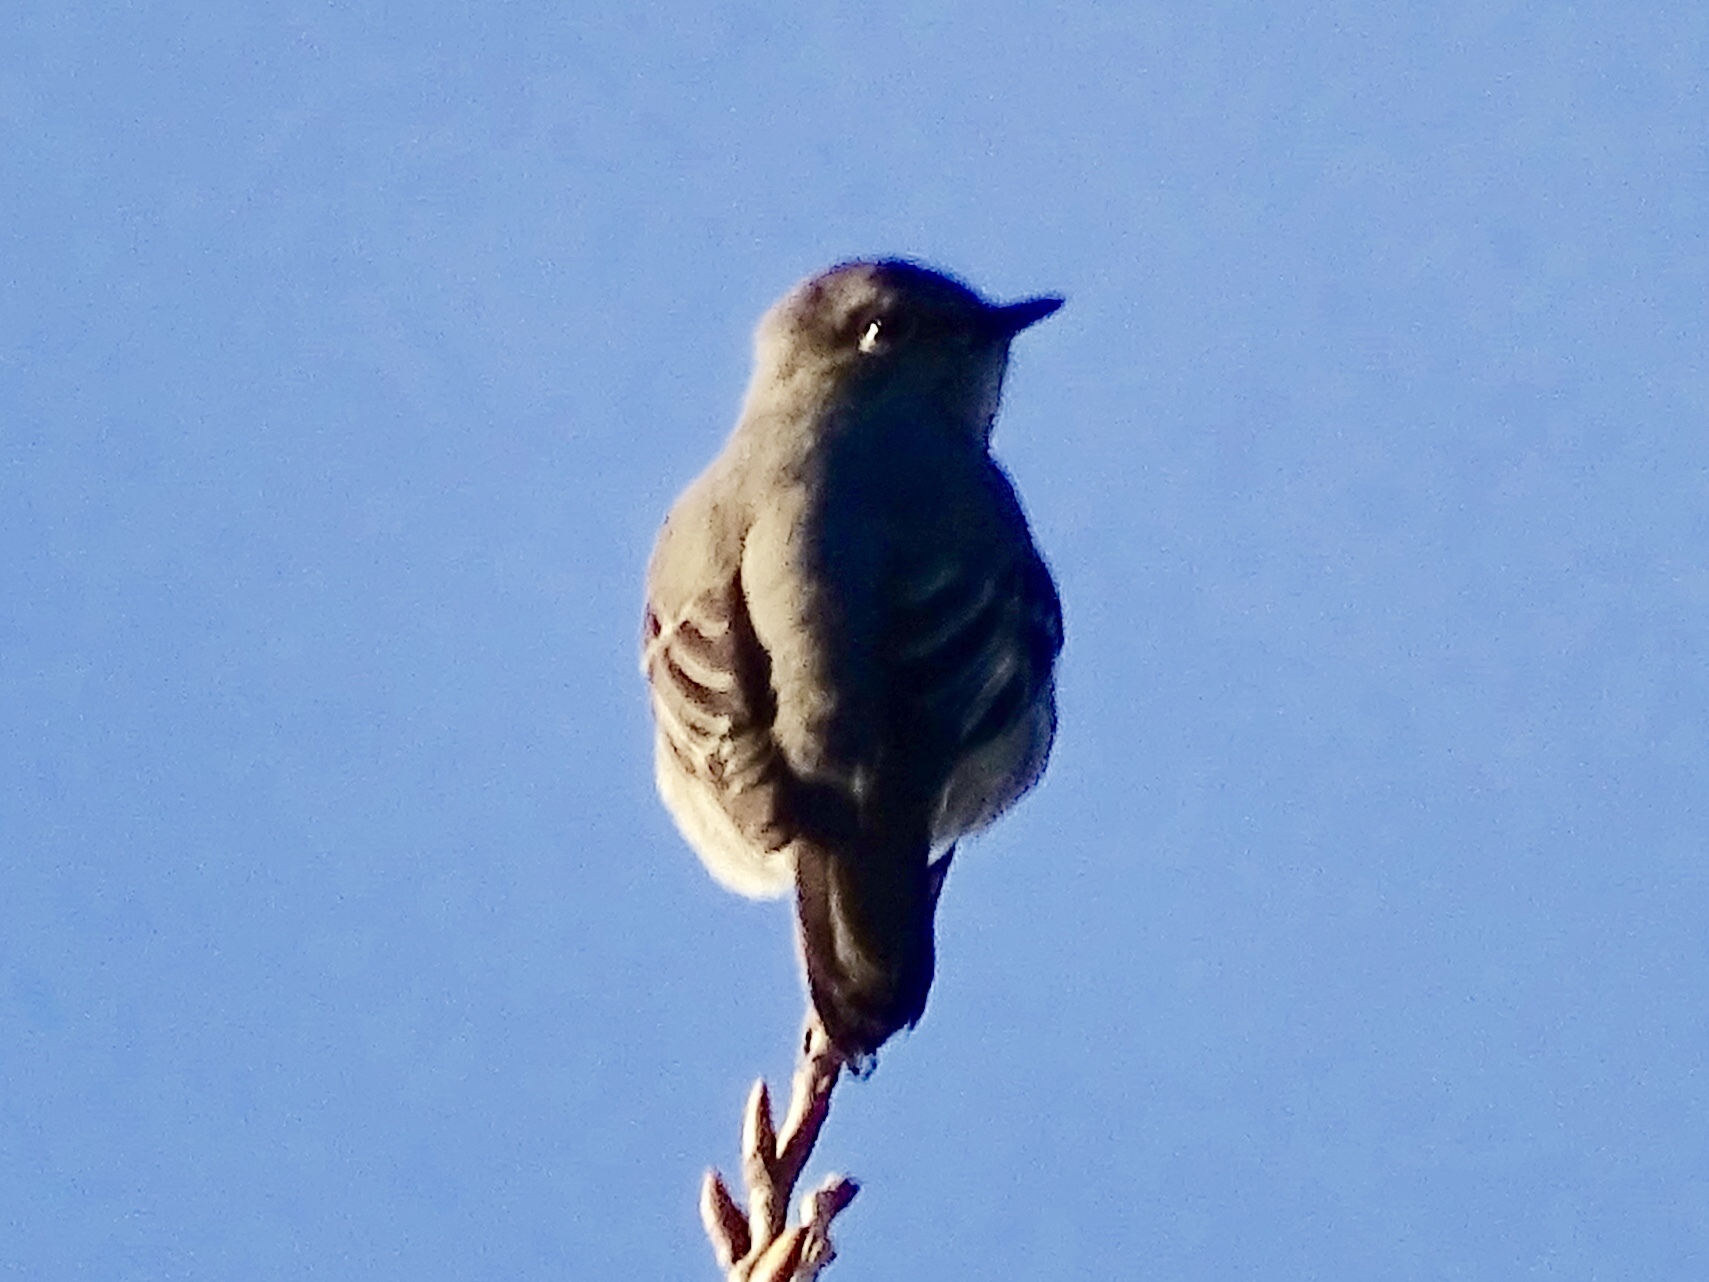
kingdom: Animalia
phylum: Chordata
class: Aves
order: Passeriformes
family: Turdidae
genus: Myadestes
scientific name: Myadestes townsendi
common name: Townsend's solitaire
